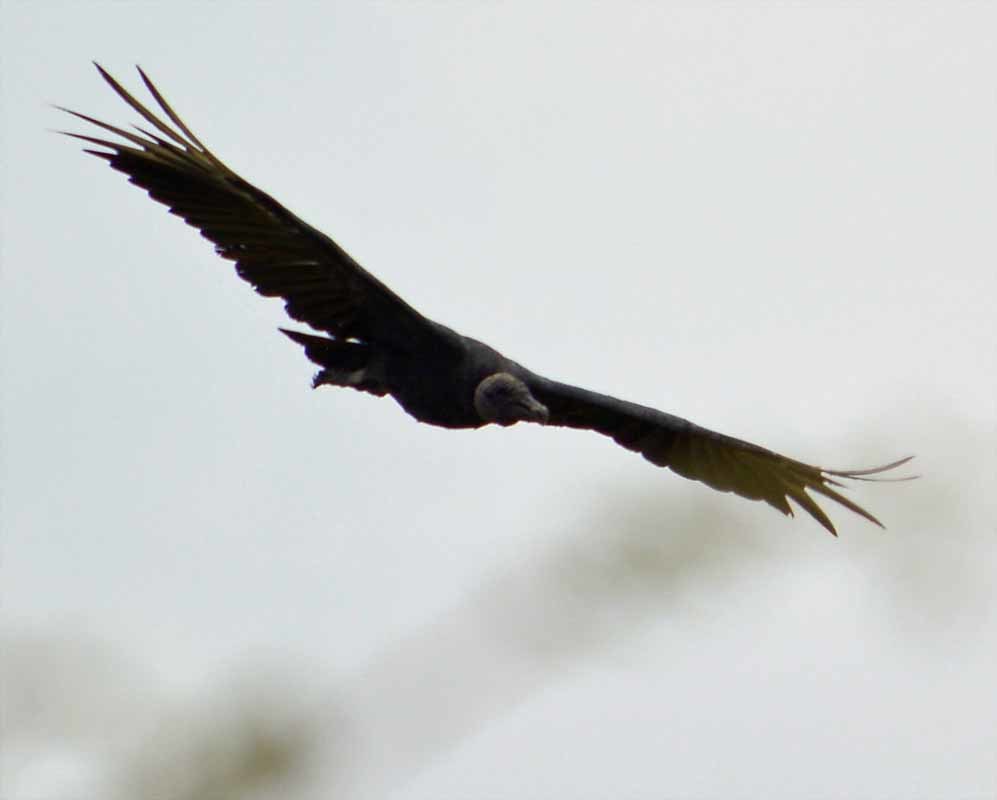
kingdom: Animalia
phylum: Chordata
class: Aves
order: Accipitriformes
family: Cathartidae
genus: Coragyps
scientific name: Coragyps atratus
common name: Black vulture
